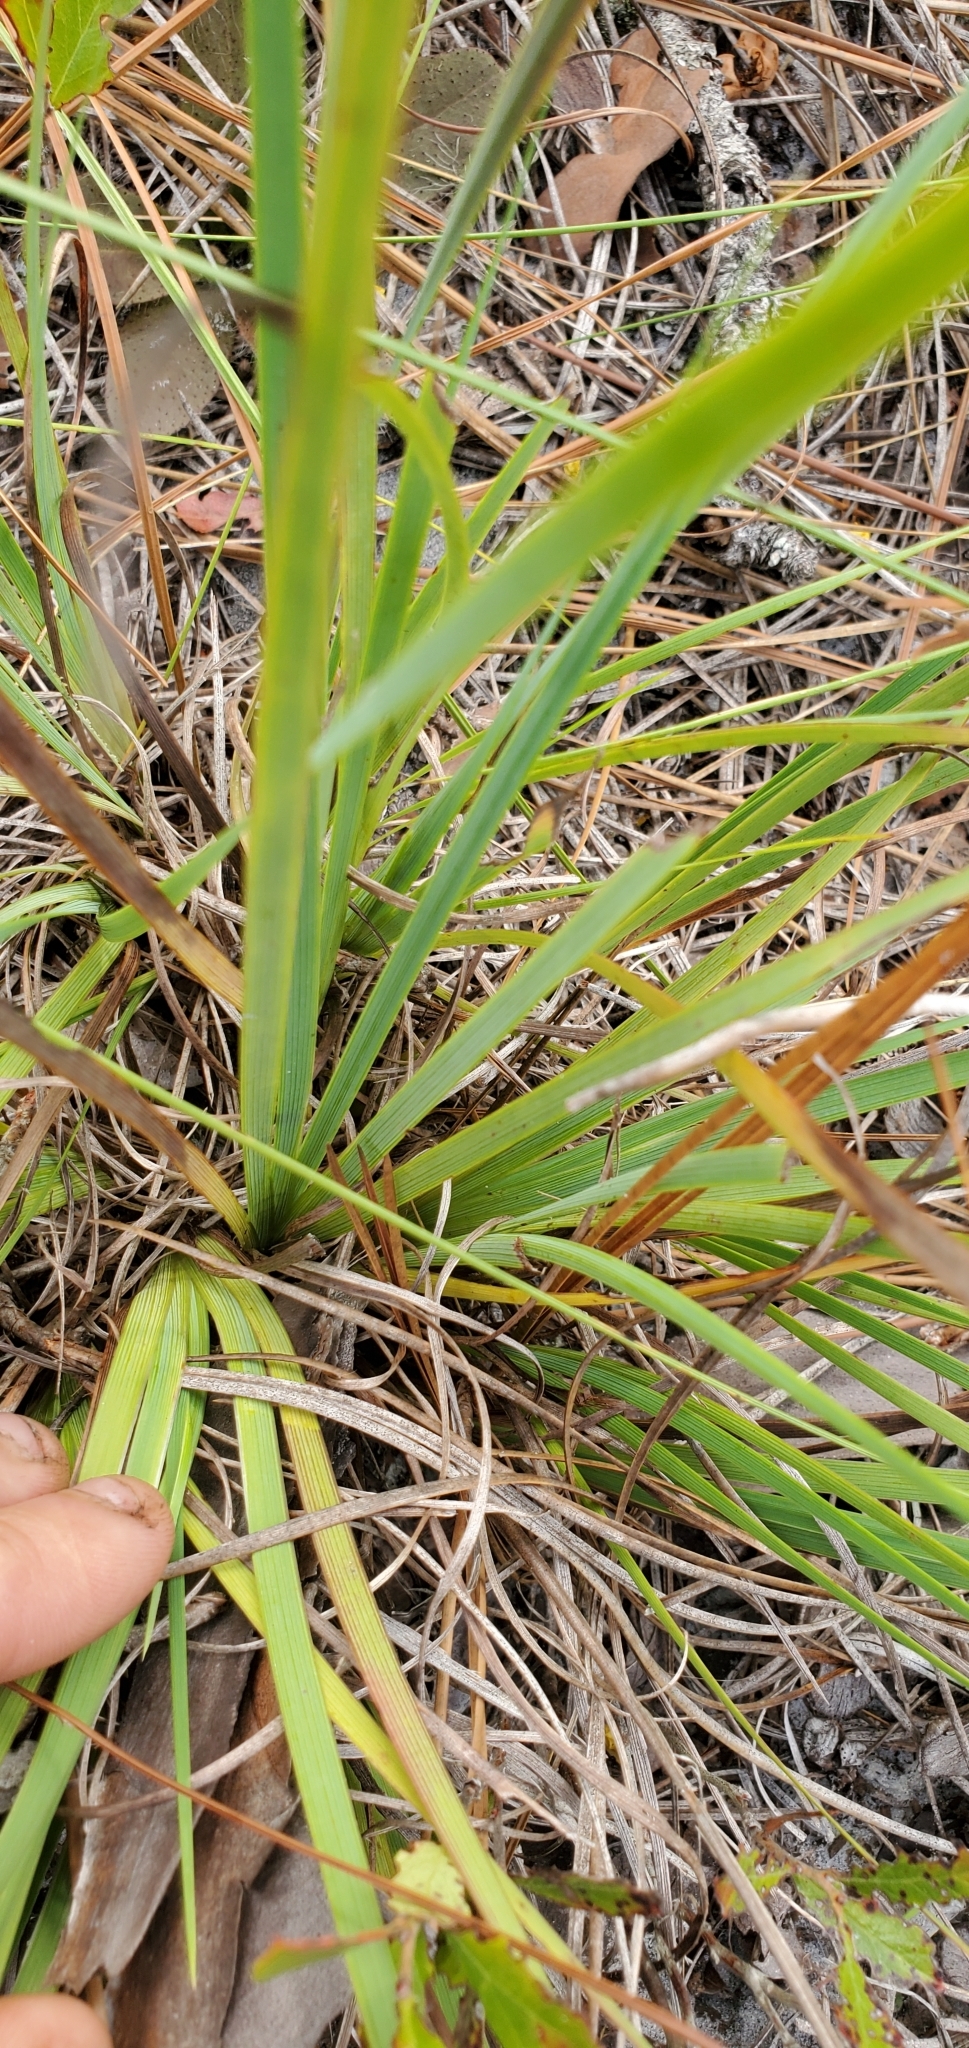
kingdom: Plantae
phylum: Tracheophyta
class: Liliopsida
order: Asparagales
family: Iridaceae
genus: Sisyrinchium
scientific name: Sisyrinchium xerophyllum
